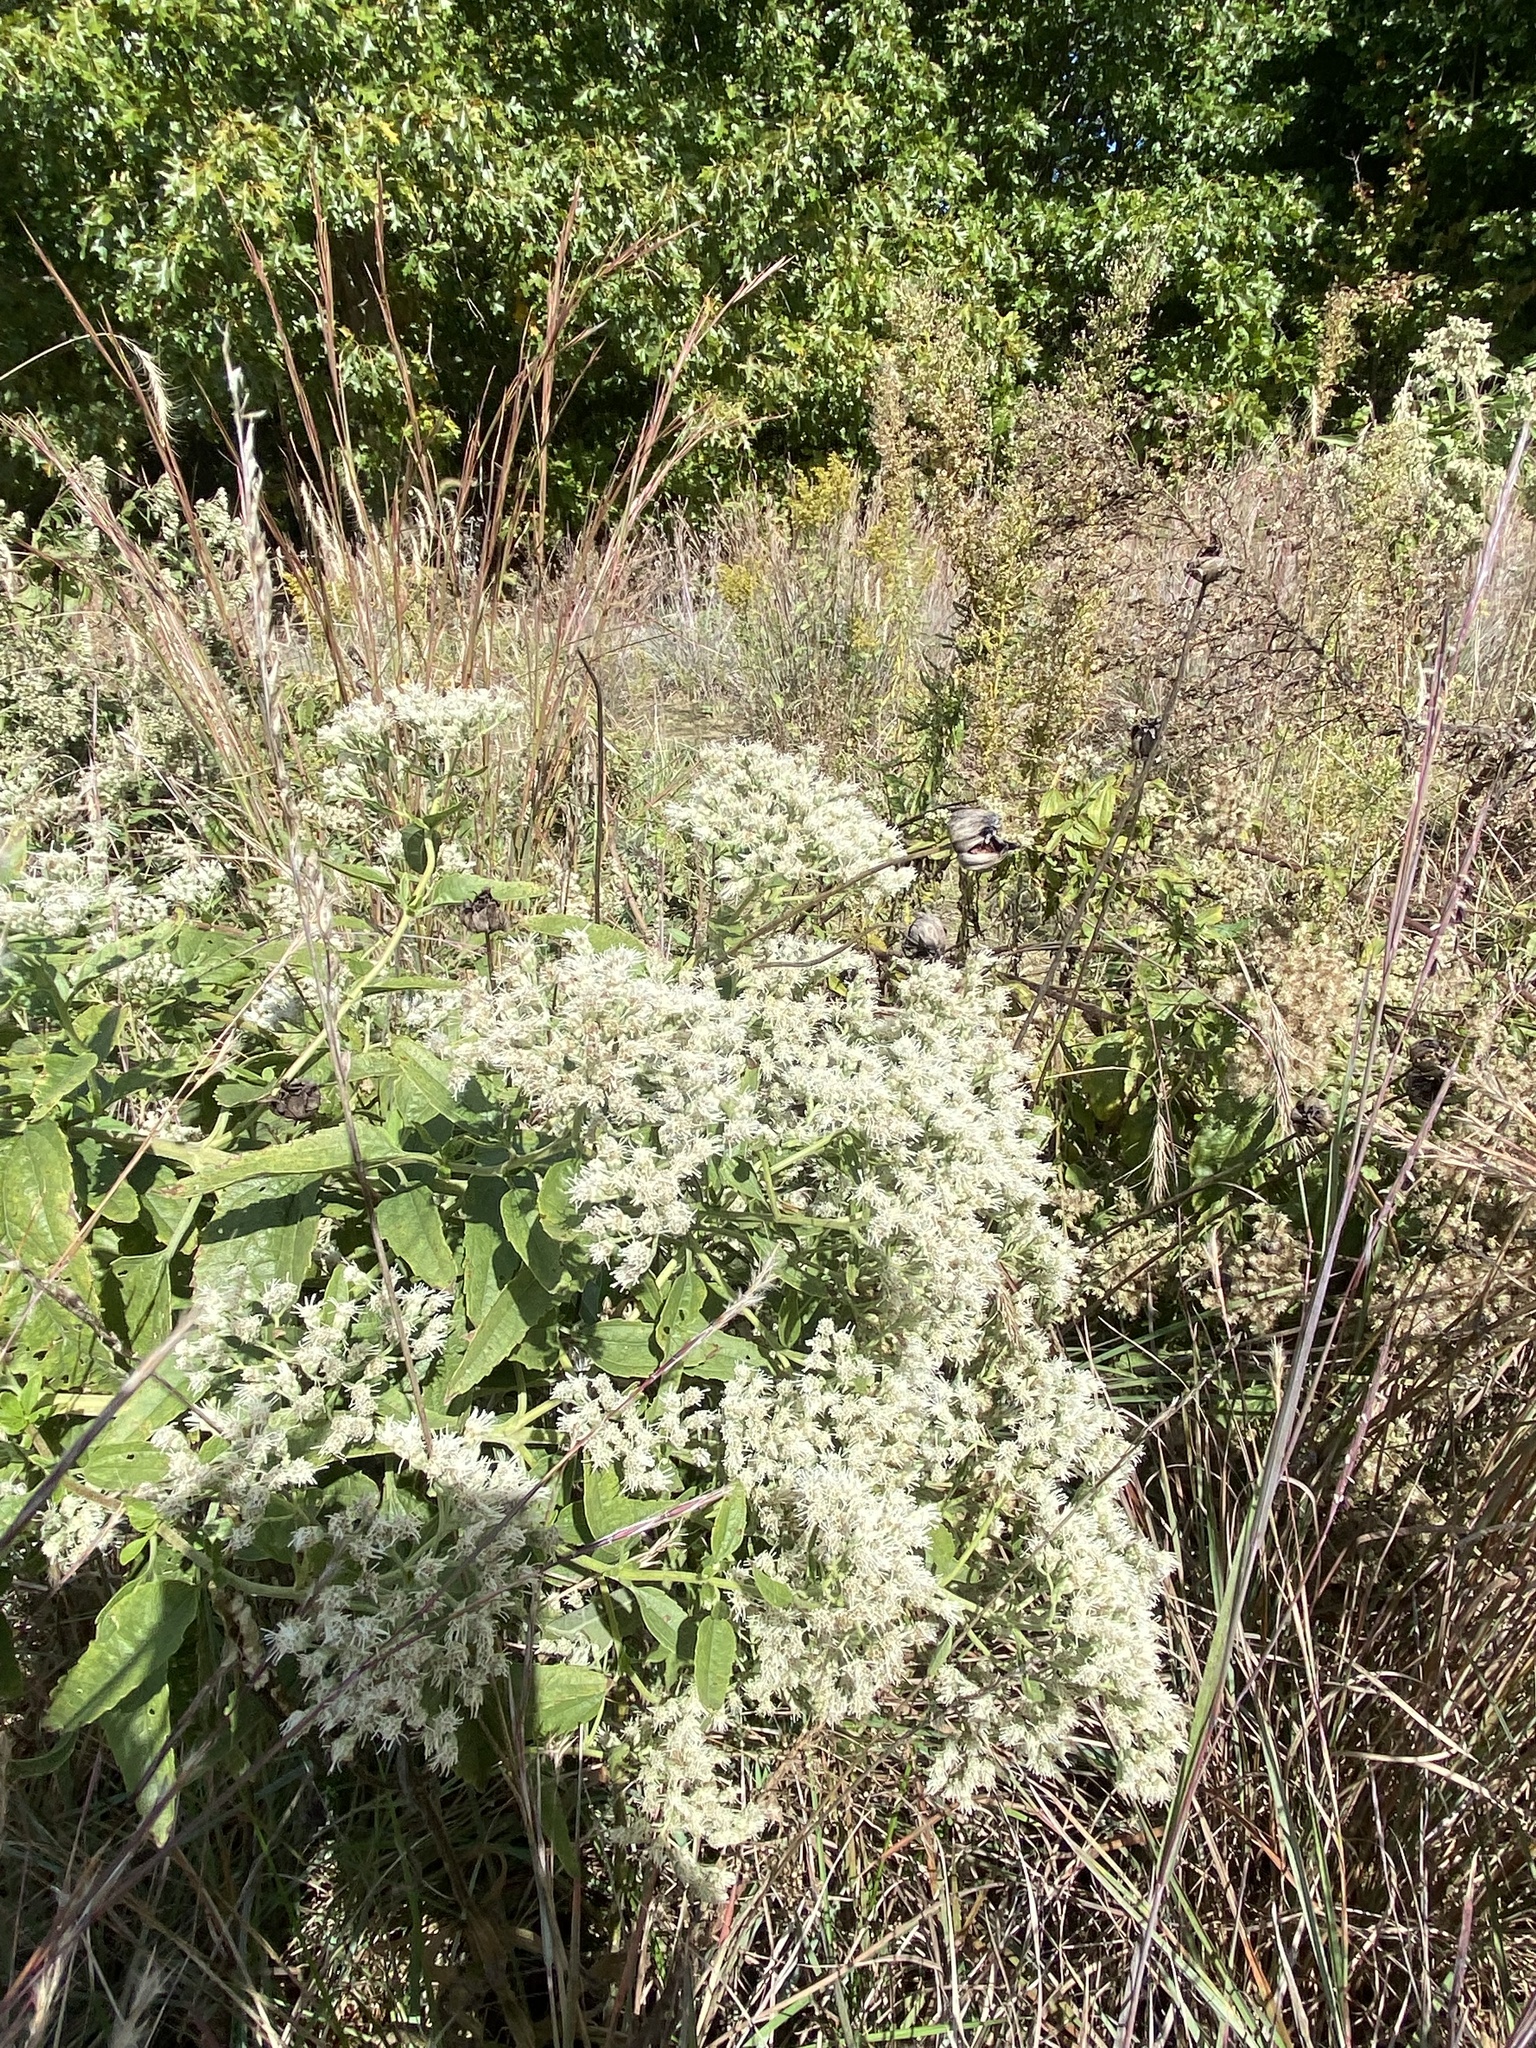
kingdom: Plantae
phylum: Tracheophyta
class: Magnoliopsida
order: Asterales
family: Asteraceae
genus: Eupatorium
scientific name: Eupatorium serotinum
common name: Late boneset
